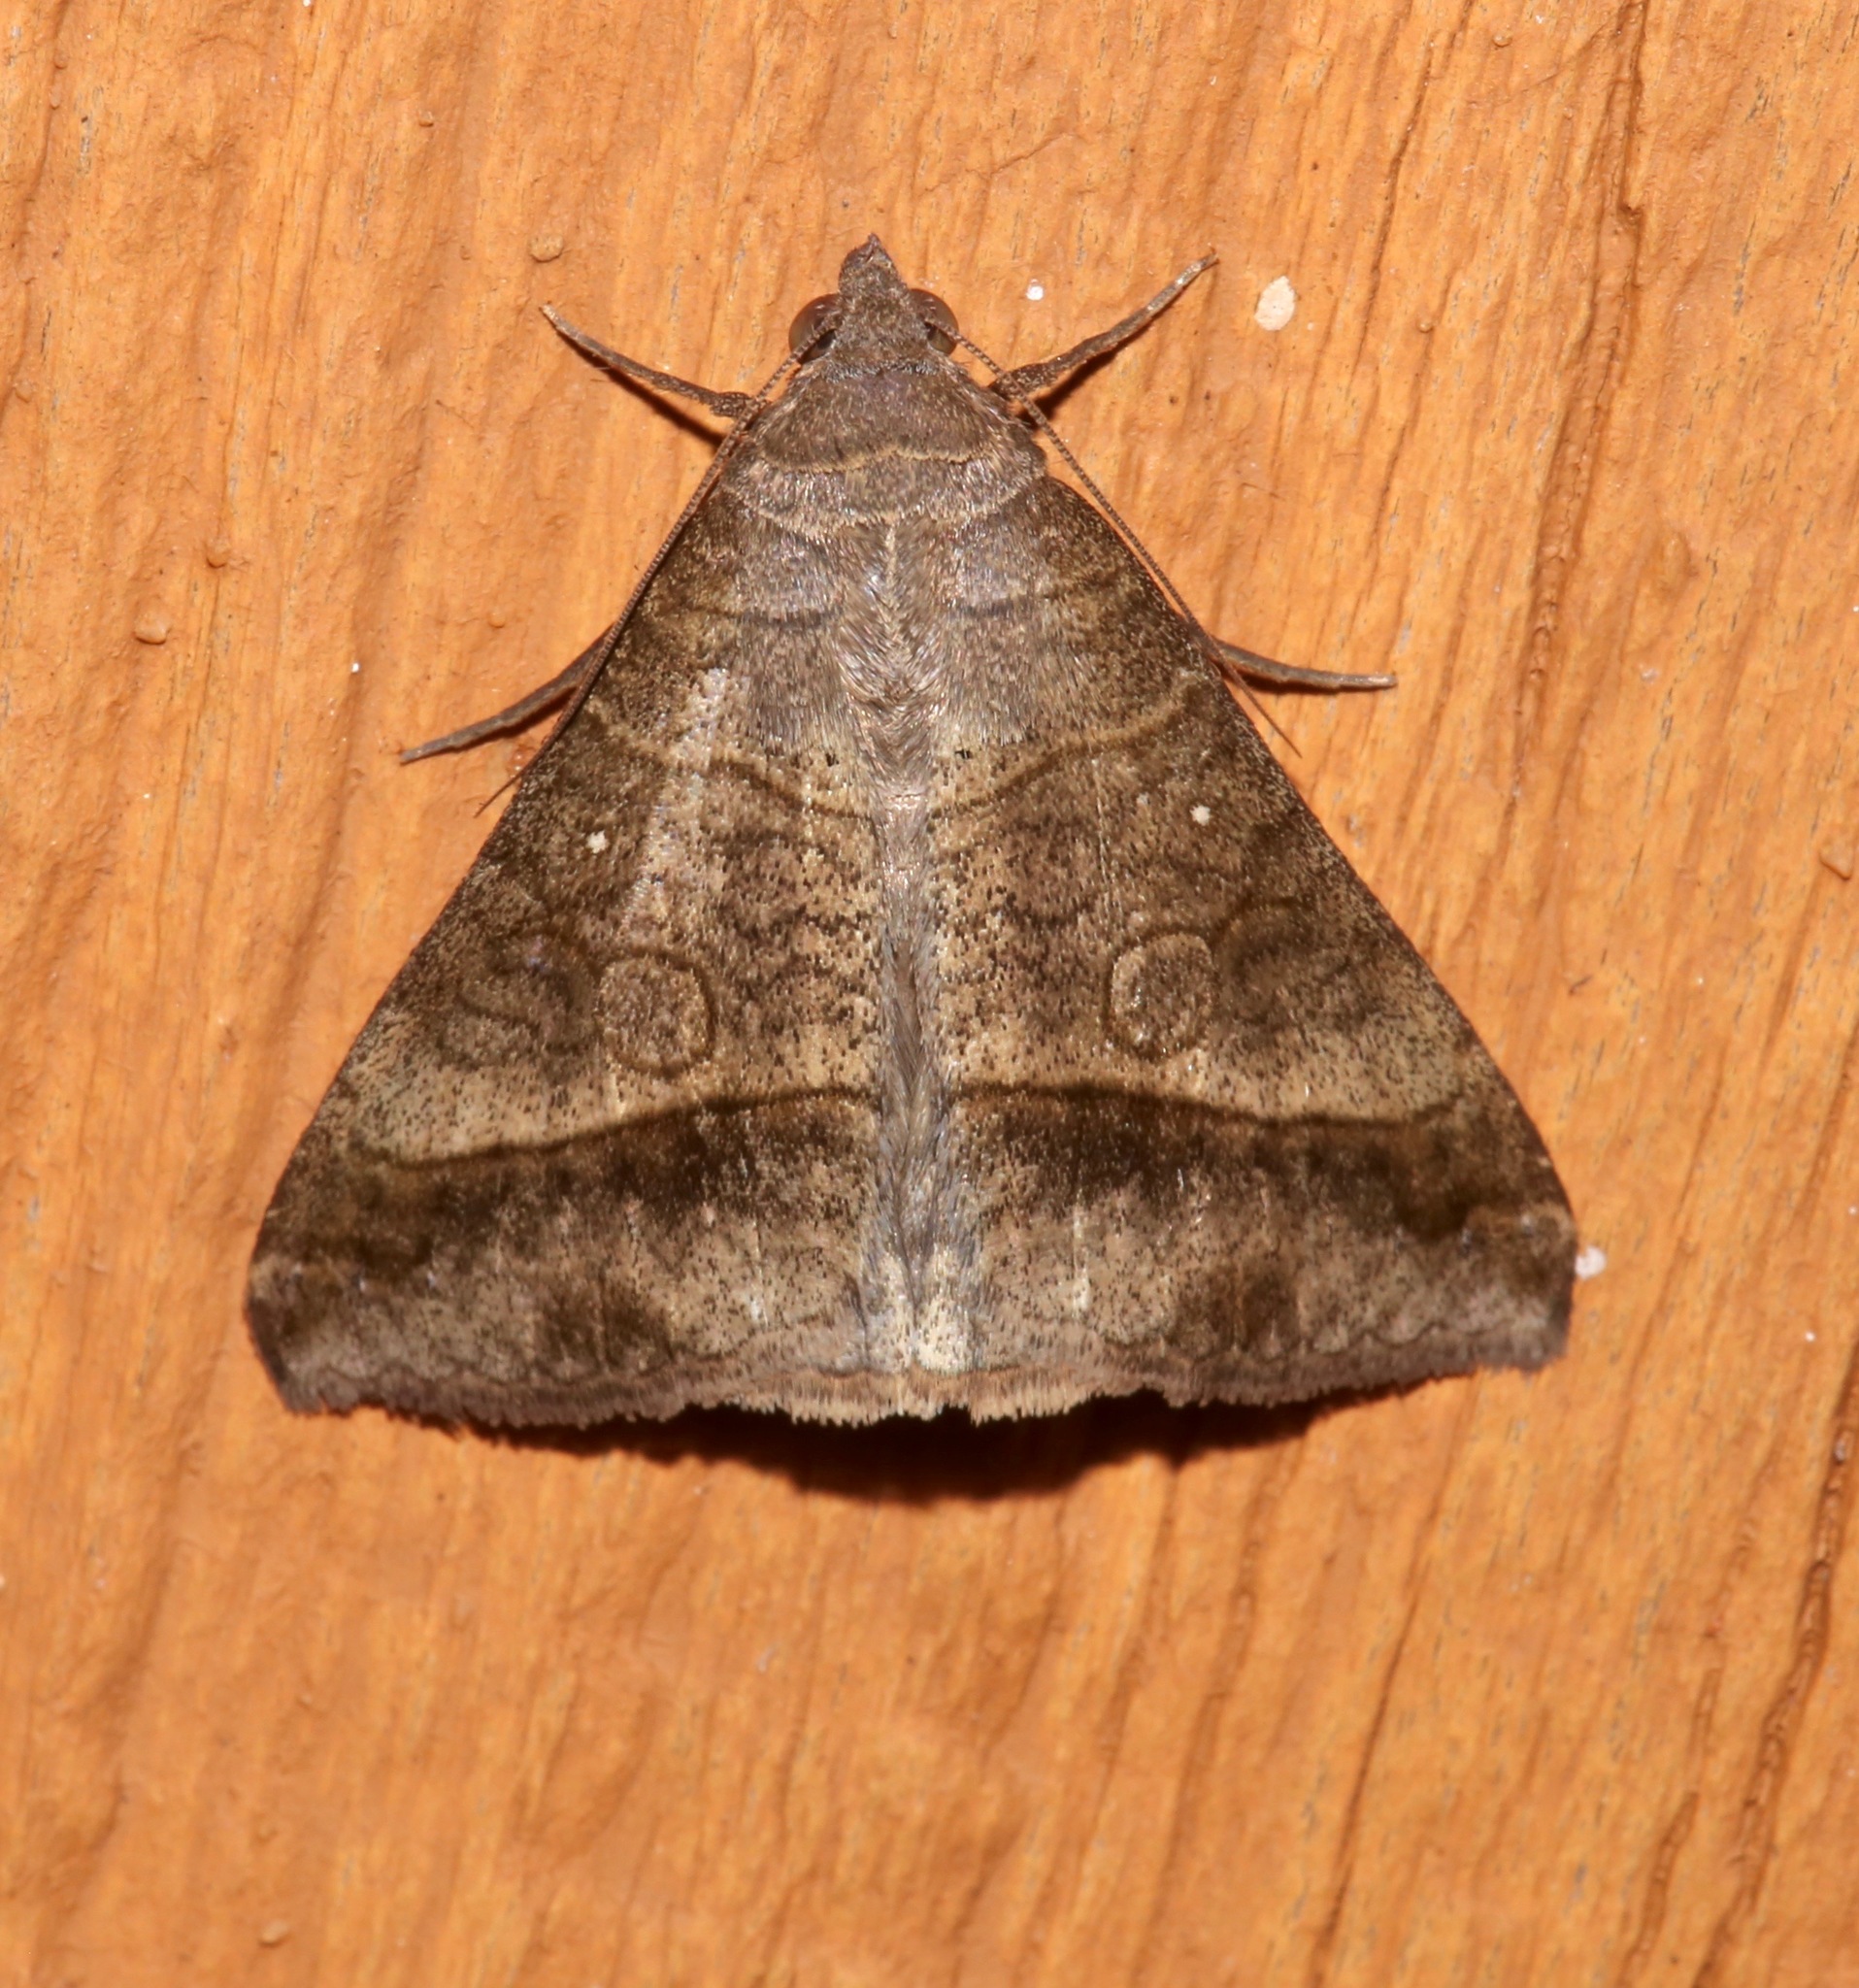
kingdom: Animalia
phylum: Arthropoda
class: Insecta
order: Lepidoptera
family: Erebidae
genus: Mocis
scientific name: Mocis latipes
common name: Striped grass looper
